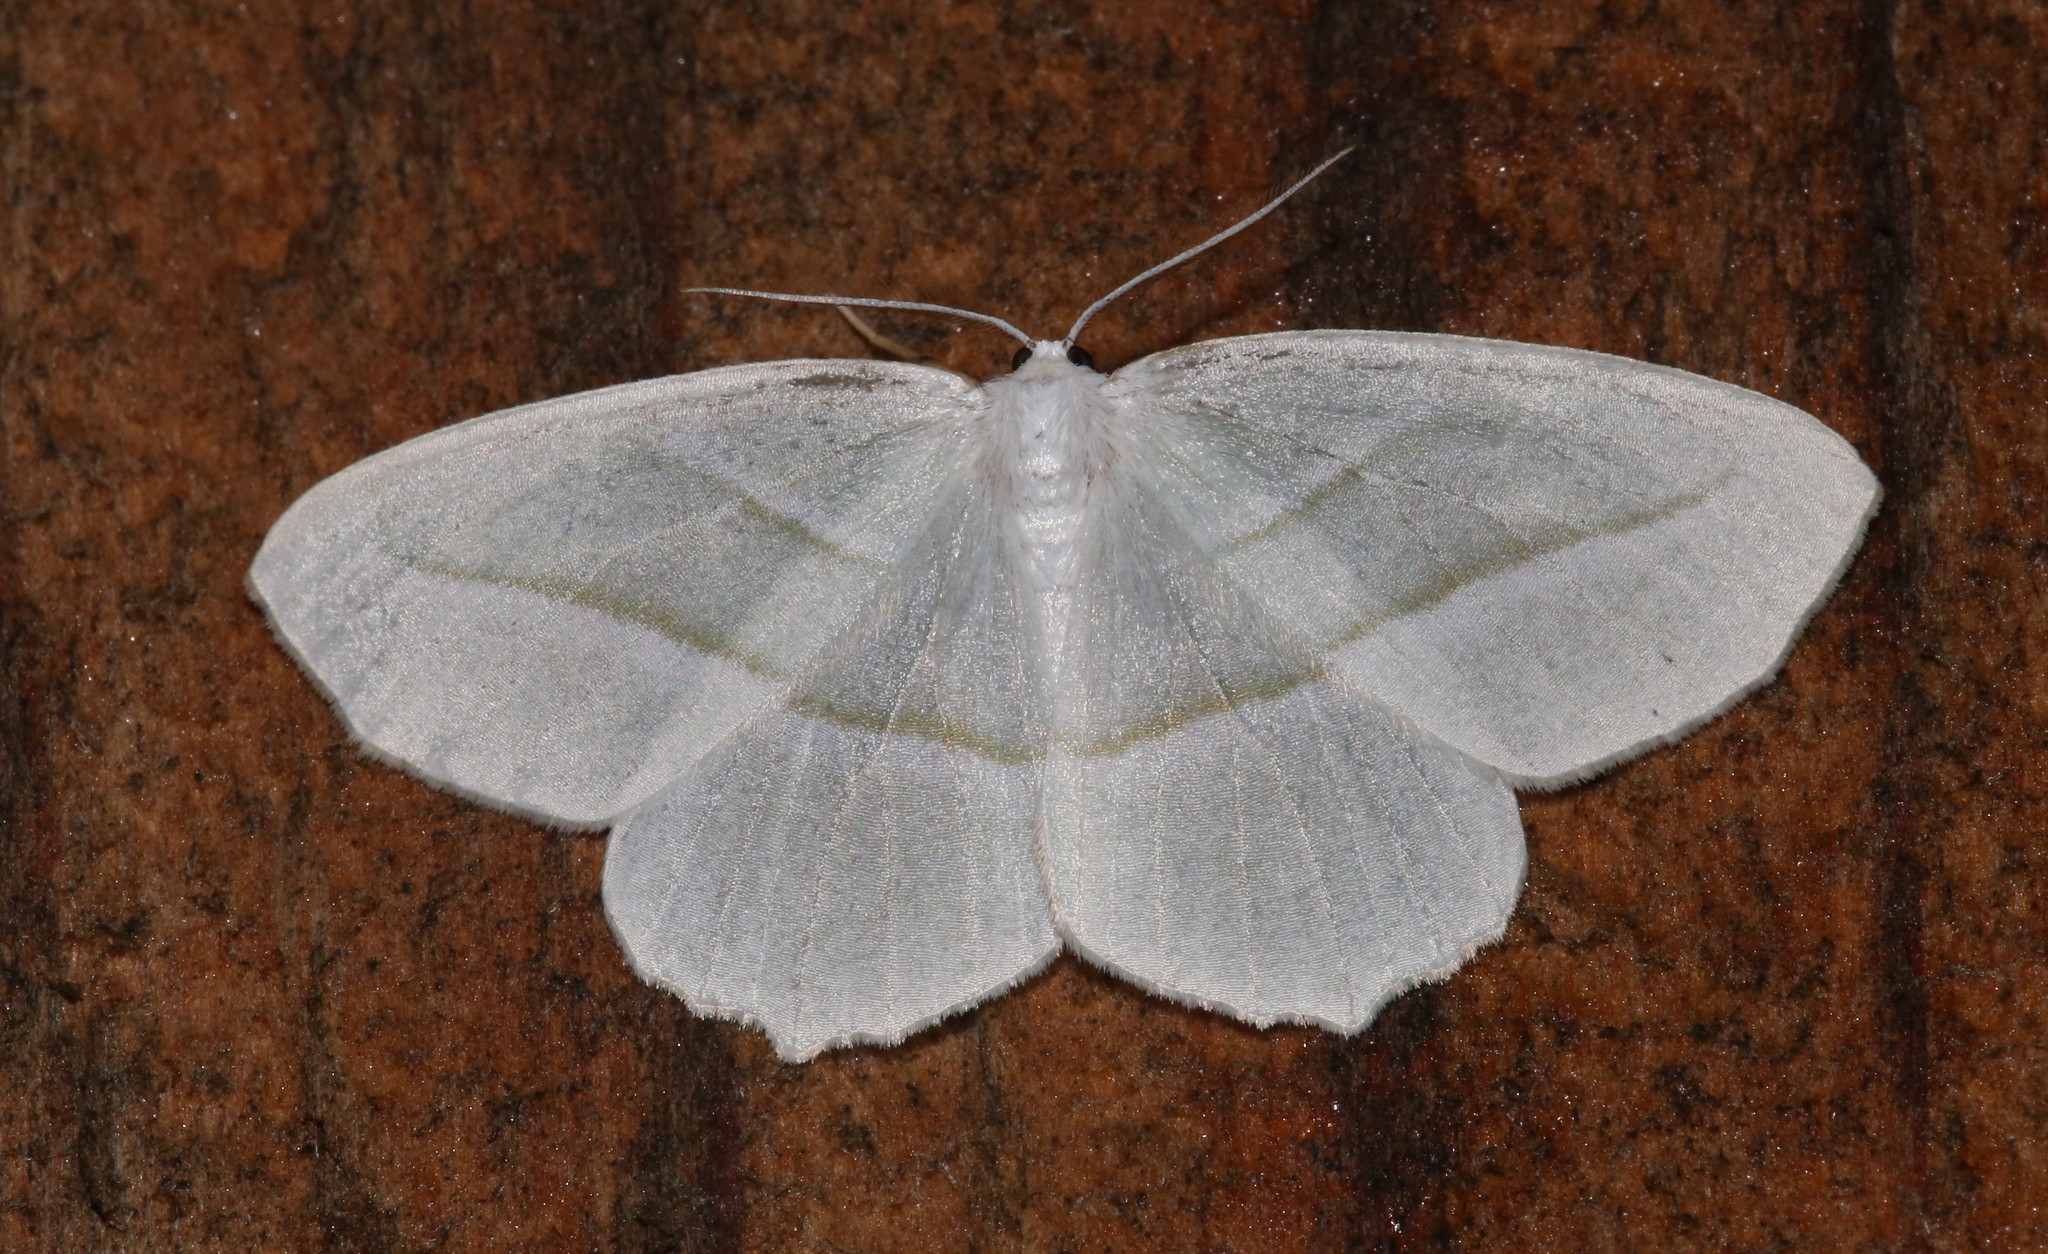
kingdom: Animalia
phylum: Arthropoda
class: Insecta
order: Lepidoptera
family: Geometridae
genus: Campaea
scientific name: Campaea perlata
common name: Fringed looper
